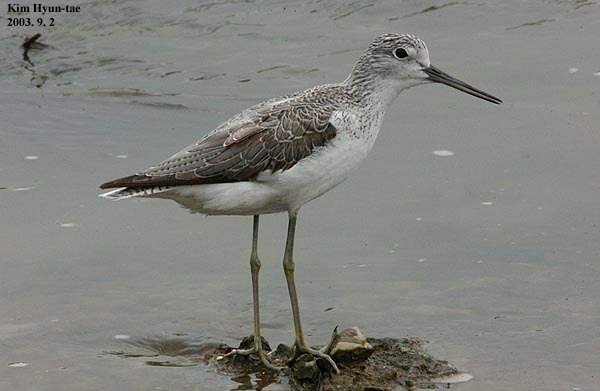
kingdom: Animalia
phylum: Chordata
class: Aves
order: Charadriiformes
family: Scolopacidae
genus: Tringa
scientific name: Tringa nebularia
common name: Common greenshank
